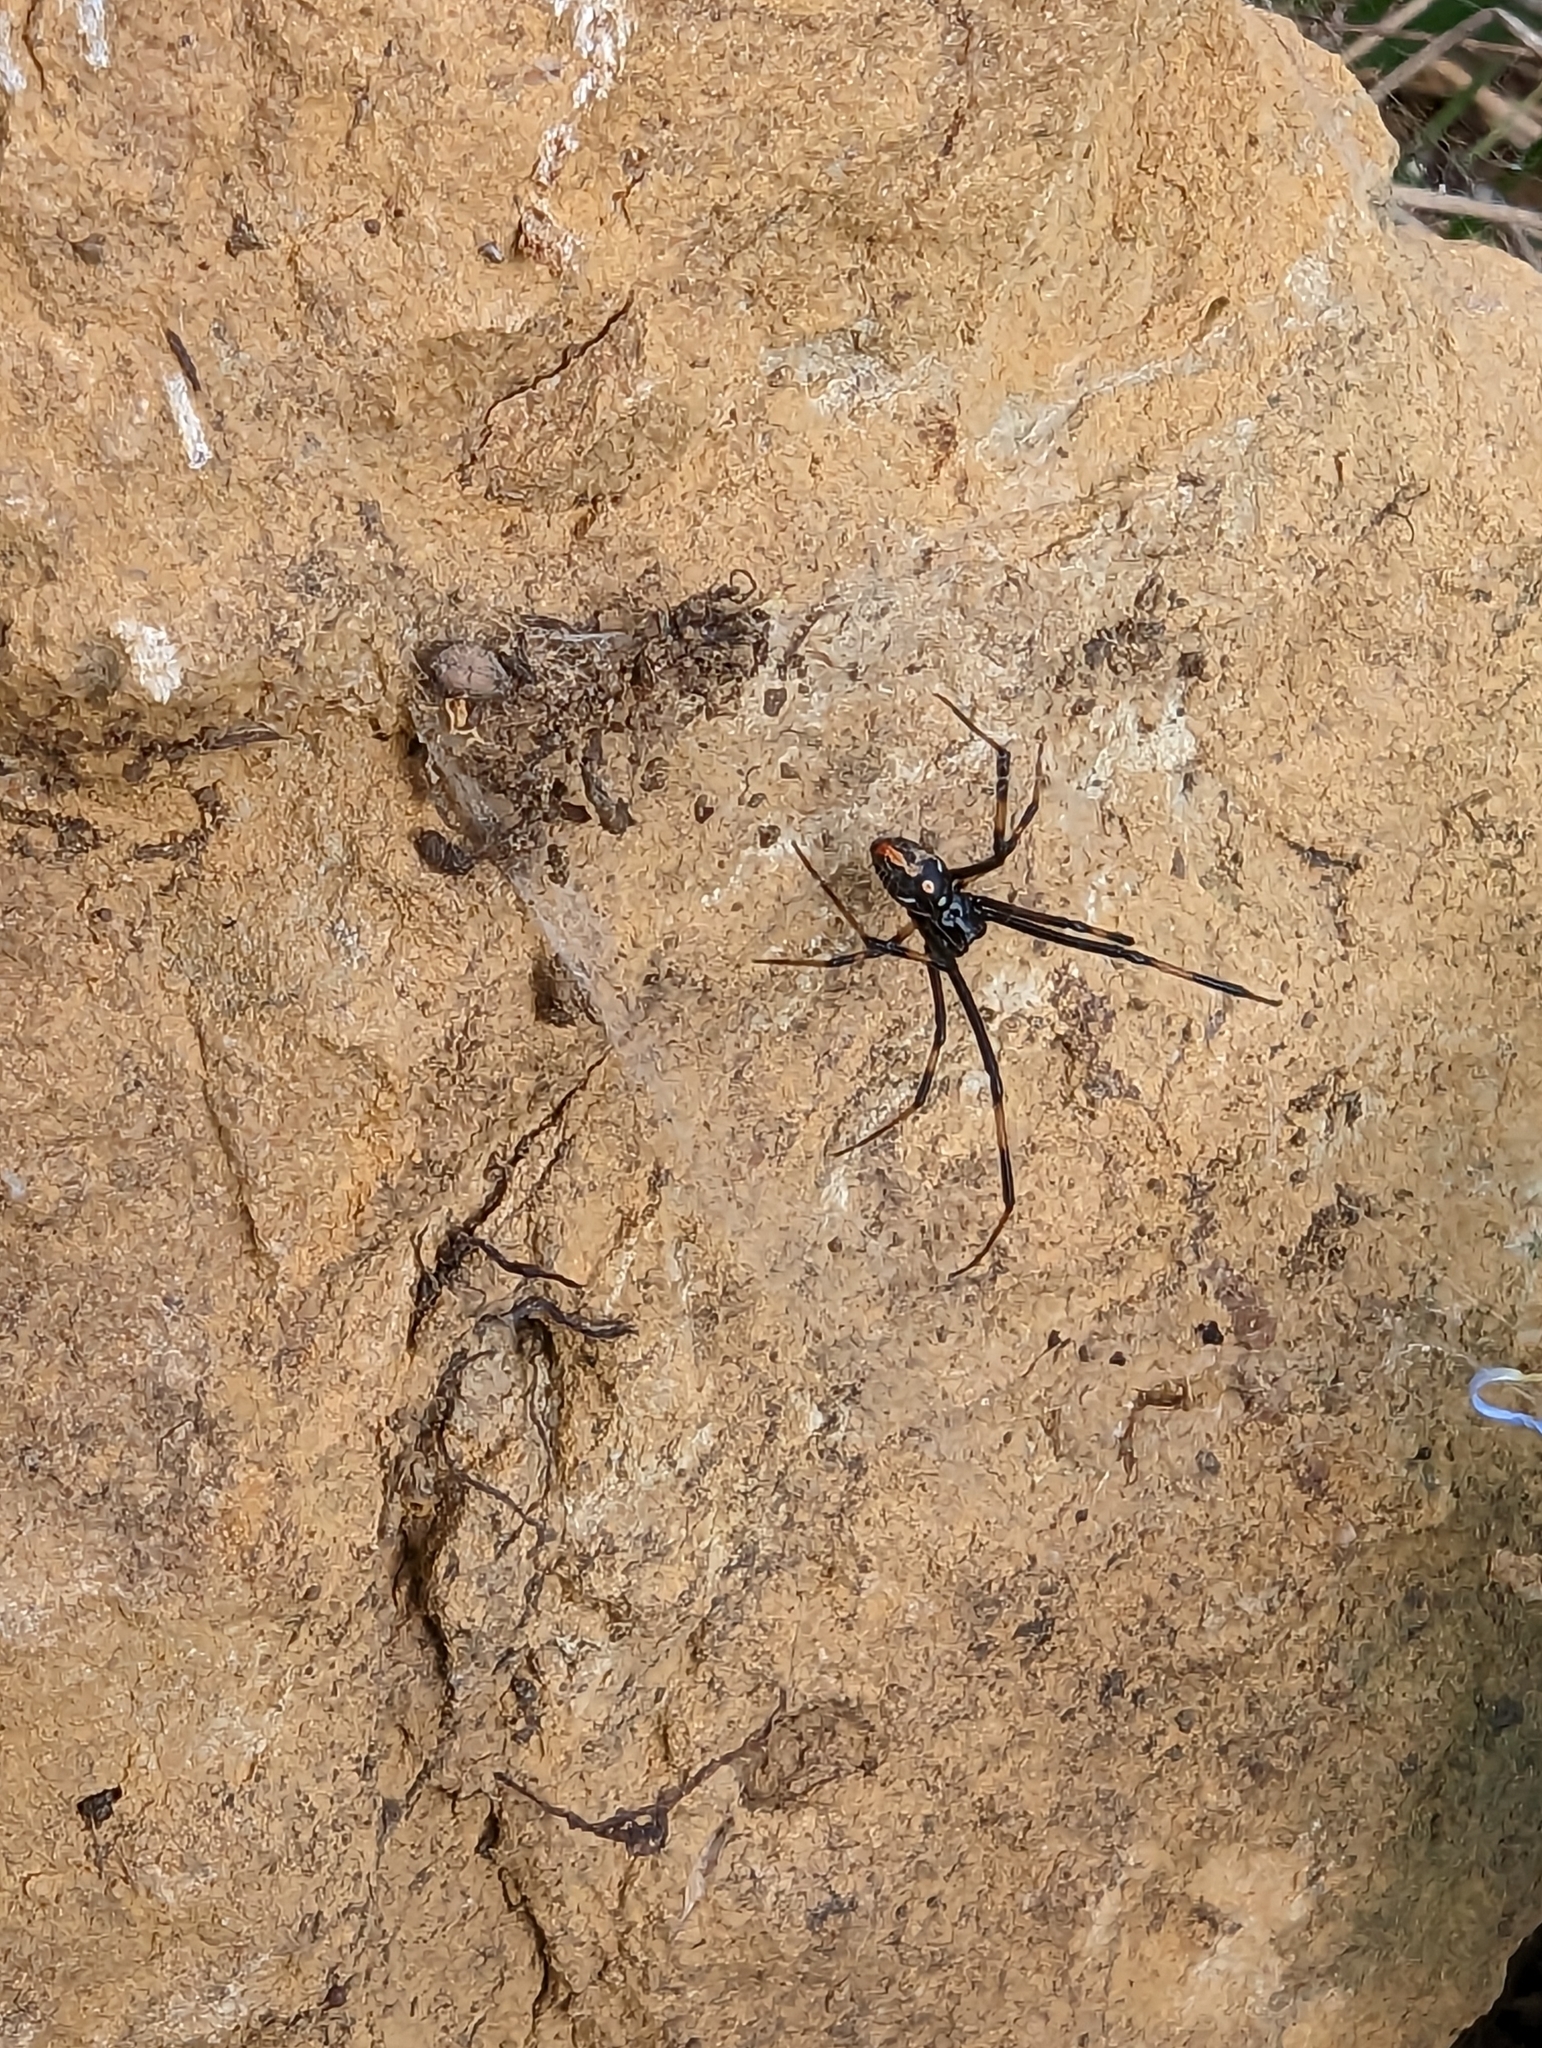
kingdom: Animalia
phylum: Arthropoda
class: Arachnida
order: Araneae
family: Theridiidae
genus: Latrodectus
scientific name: Latrodectus mactans
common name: Cobweb spiders
